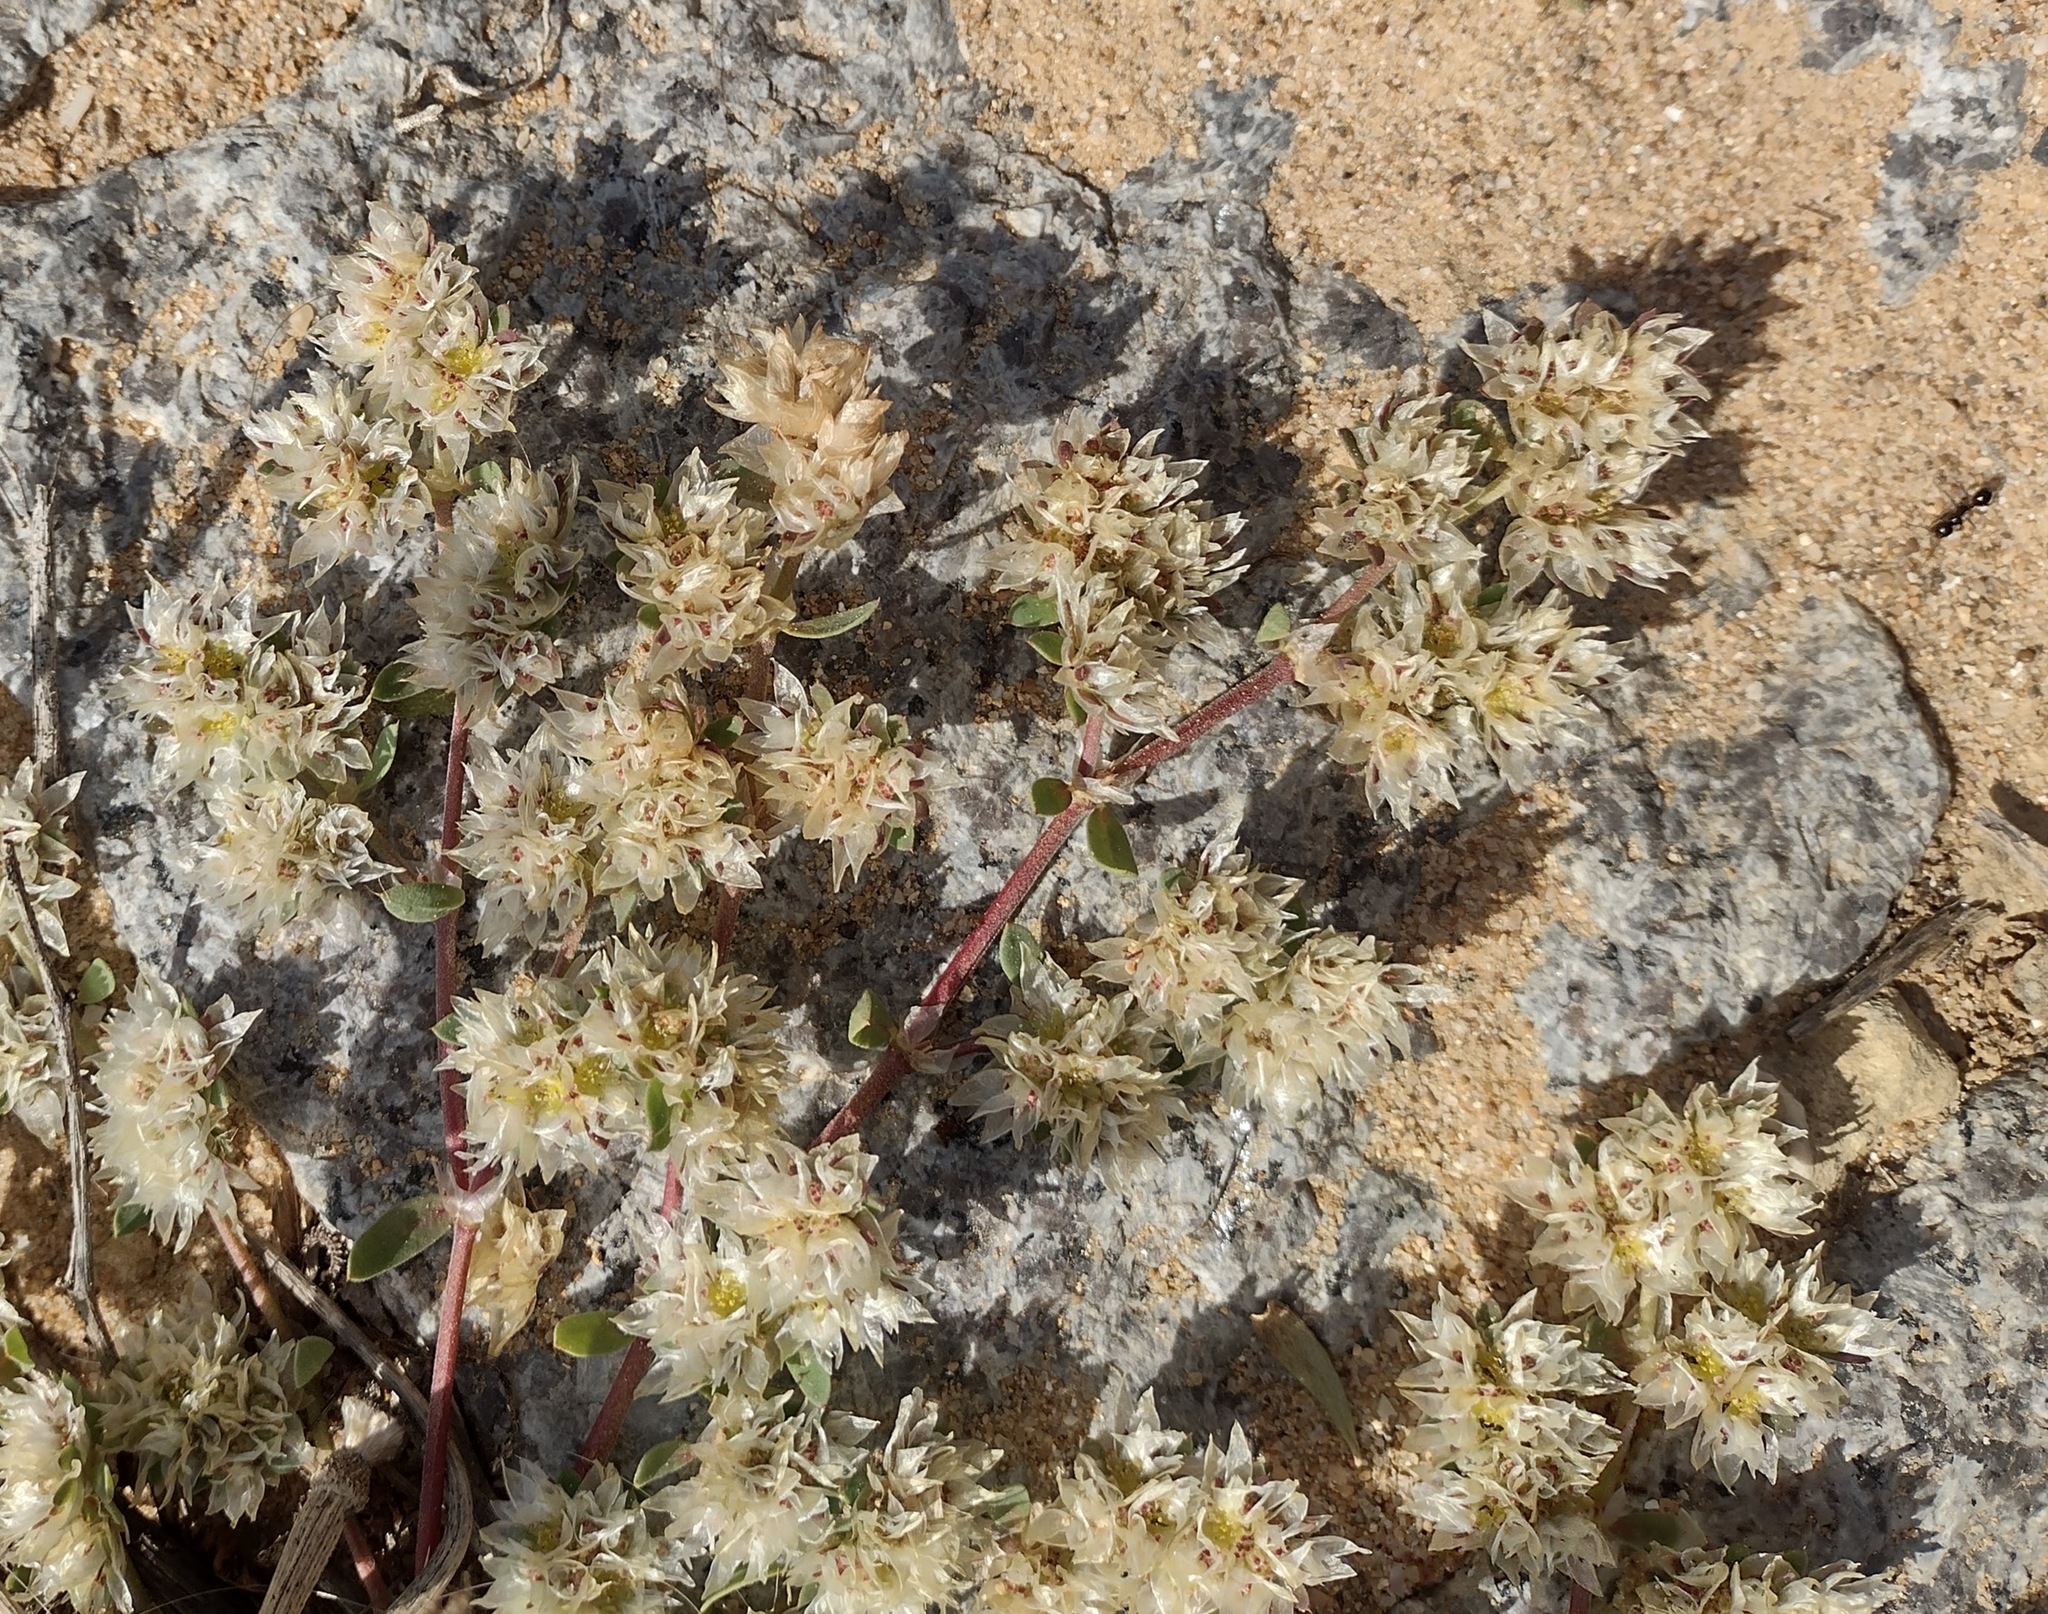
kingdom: Plantae
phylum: Tracheophyta
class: Magnoliopsida
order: Caryophyllales
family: Caryophyllaceae
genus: Paronychia
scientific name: Paronychia argentea
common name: Silver nailroot
